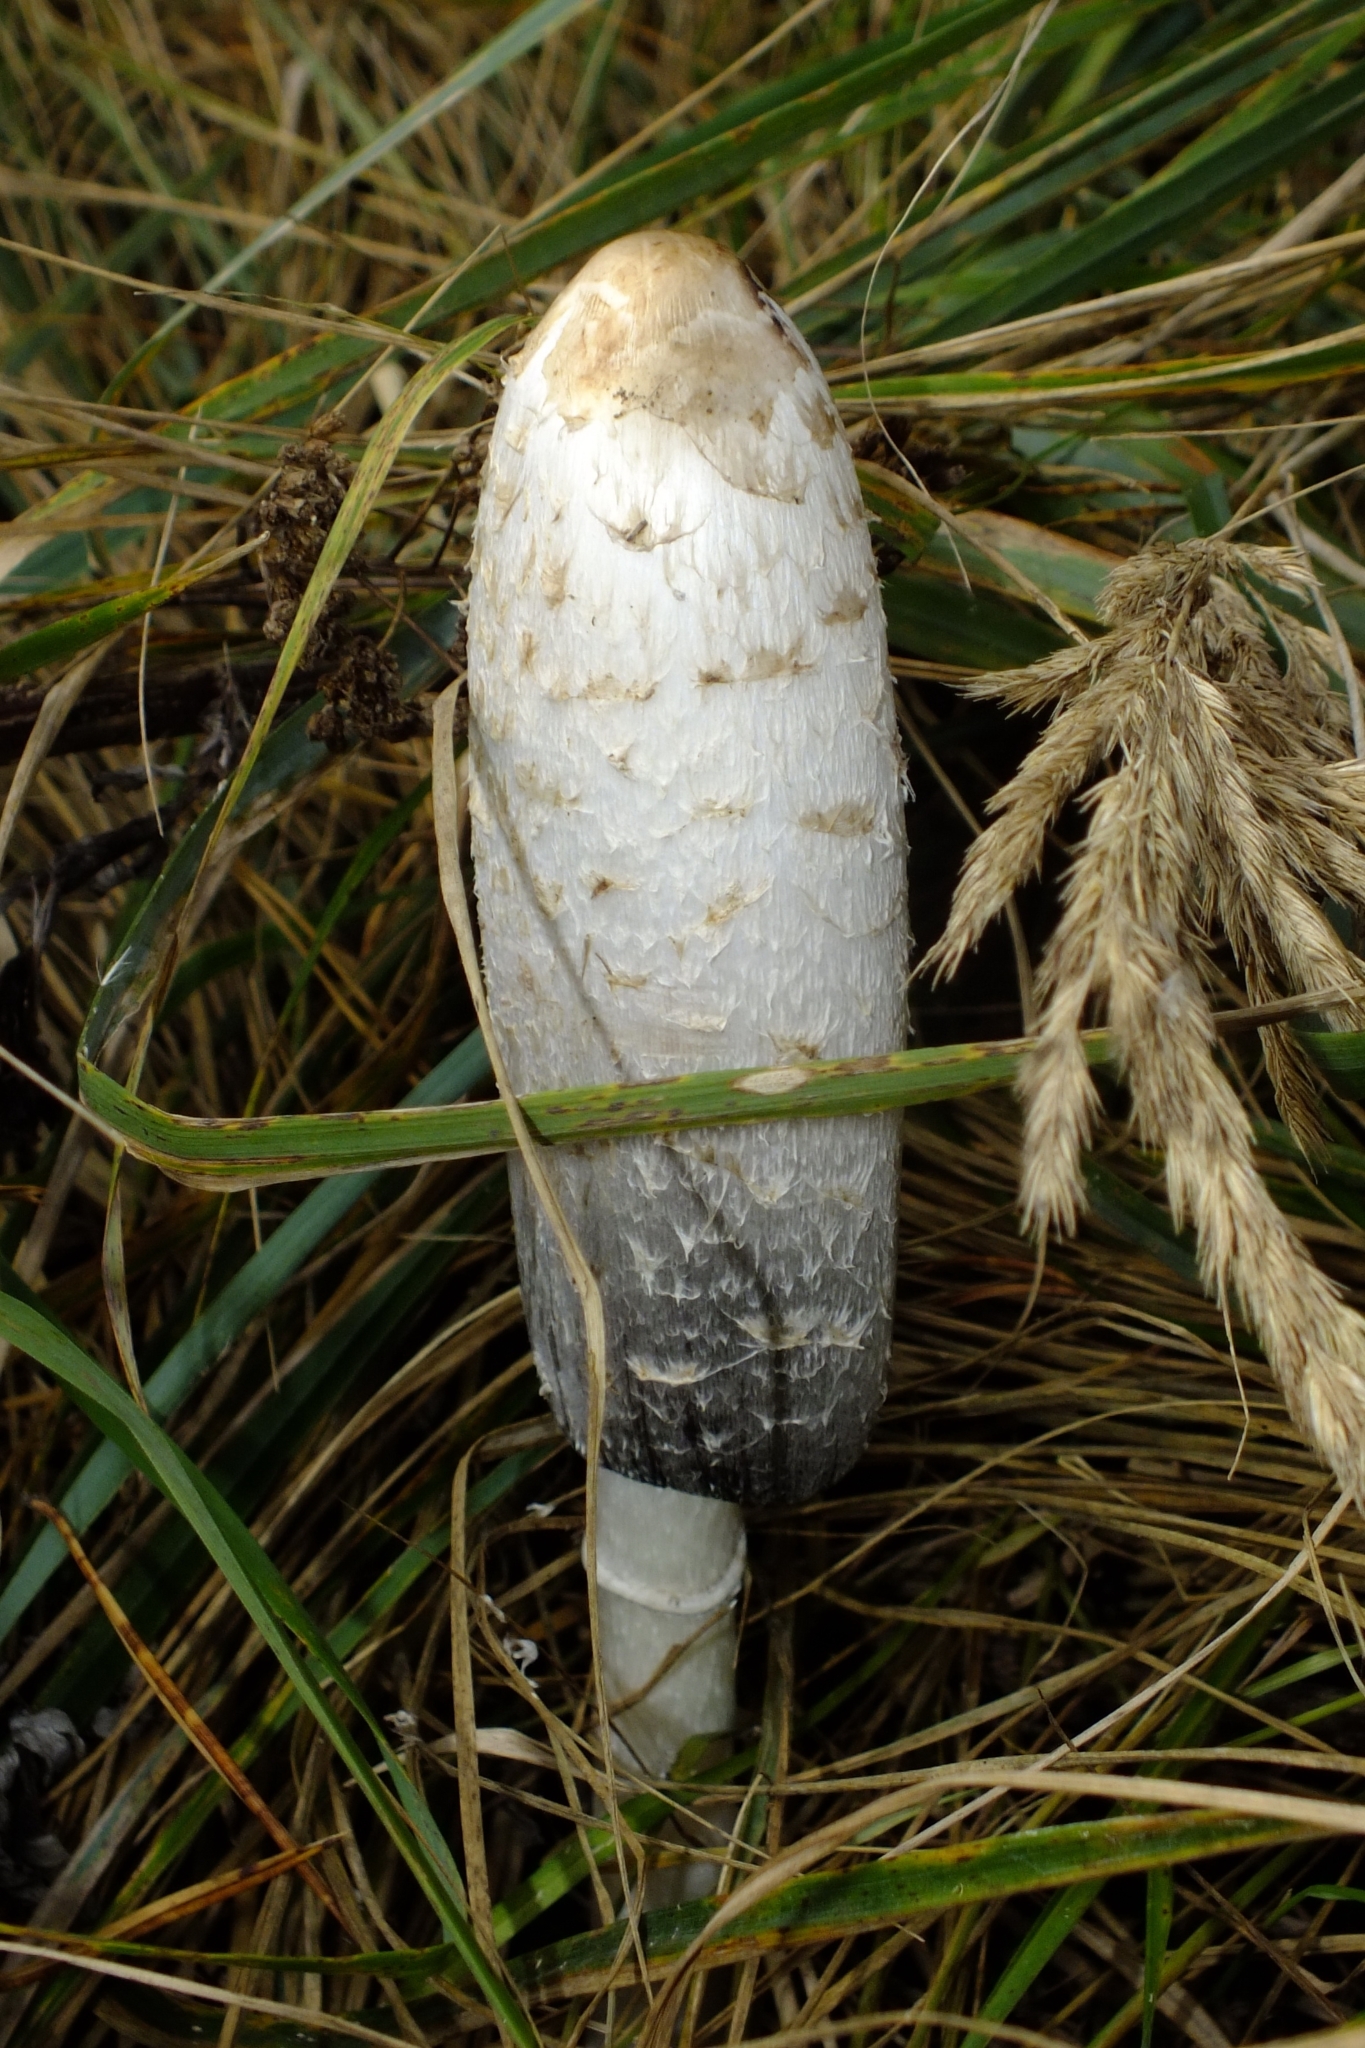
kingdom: Fungi
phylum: Basidiomycota
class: Agaricomycetes
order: Agaricales
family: Agaricaceae
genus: Coprinus
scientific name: Coprinus comatus
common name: Lawyer's wig
